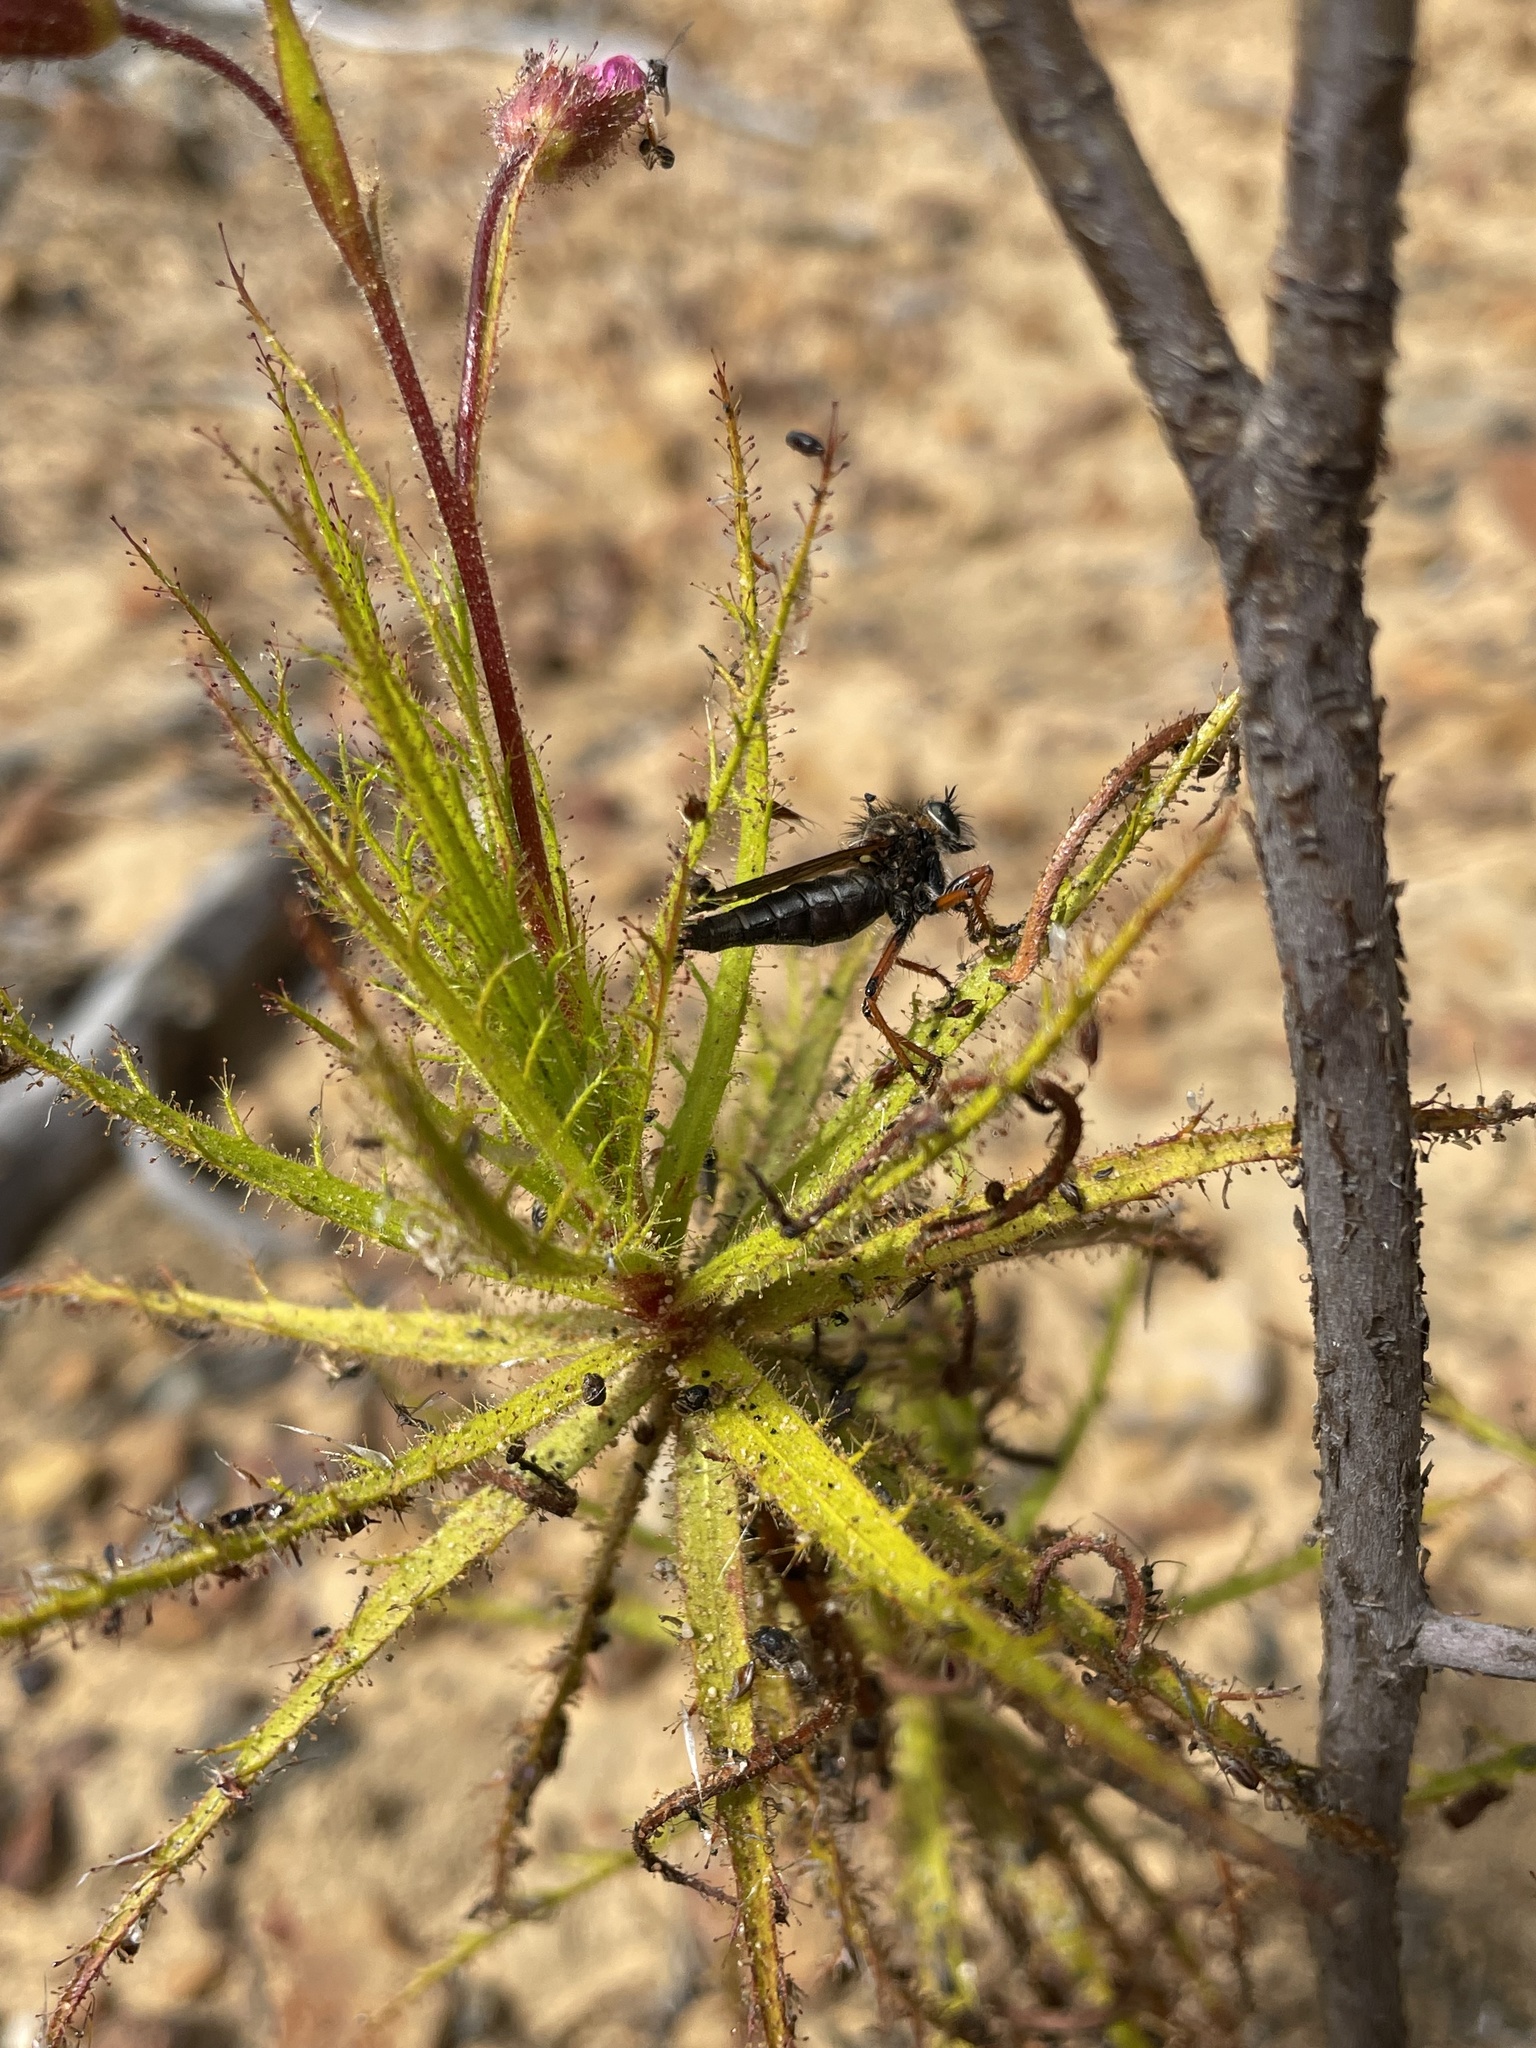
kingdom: Plantae
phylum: Tracheophyta
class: Magnoliopsida
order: Ericales
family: Roridulaceae
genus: Roridula
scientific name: Roridula dentata
